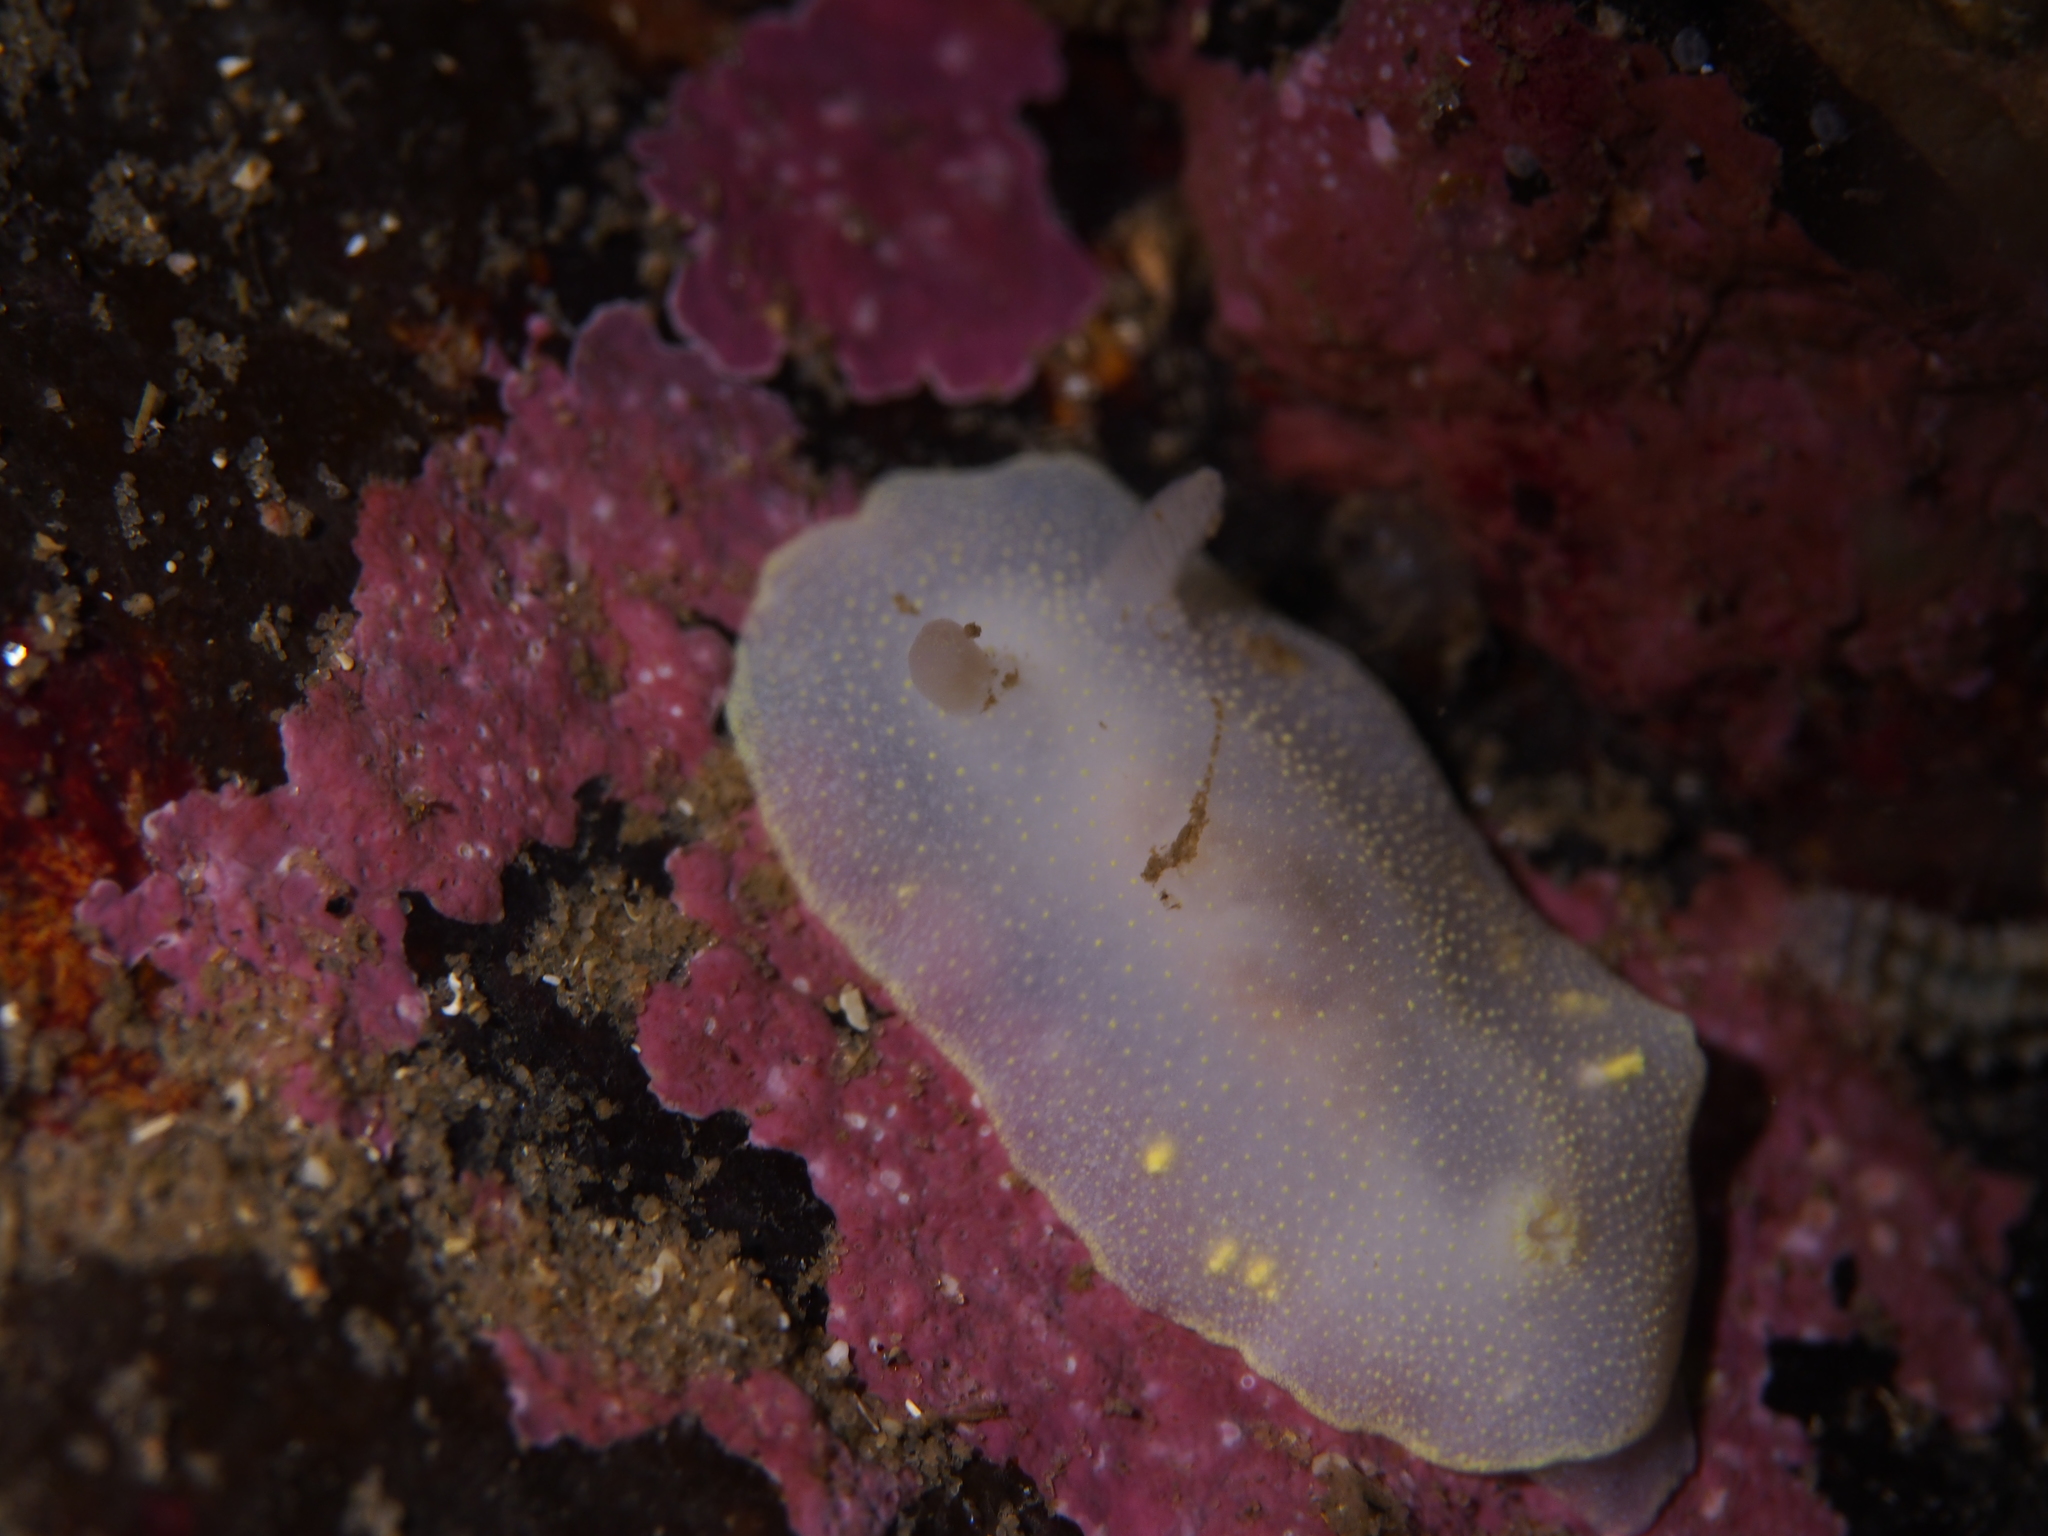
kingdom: Animalia
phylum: Mollusca
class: Gastropoda
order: Nudibranchia
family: Cadlinidae
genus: Cadlina
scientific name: Cadlina laevis
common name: White atlantic cadlina
